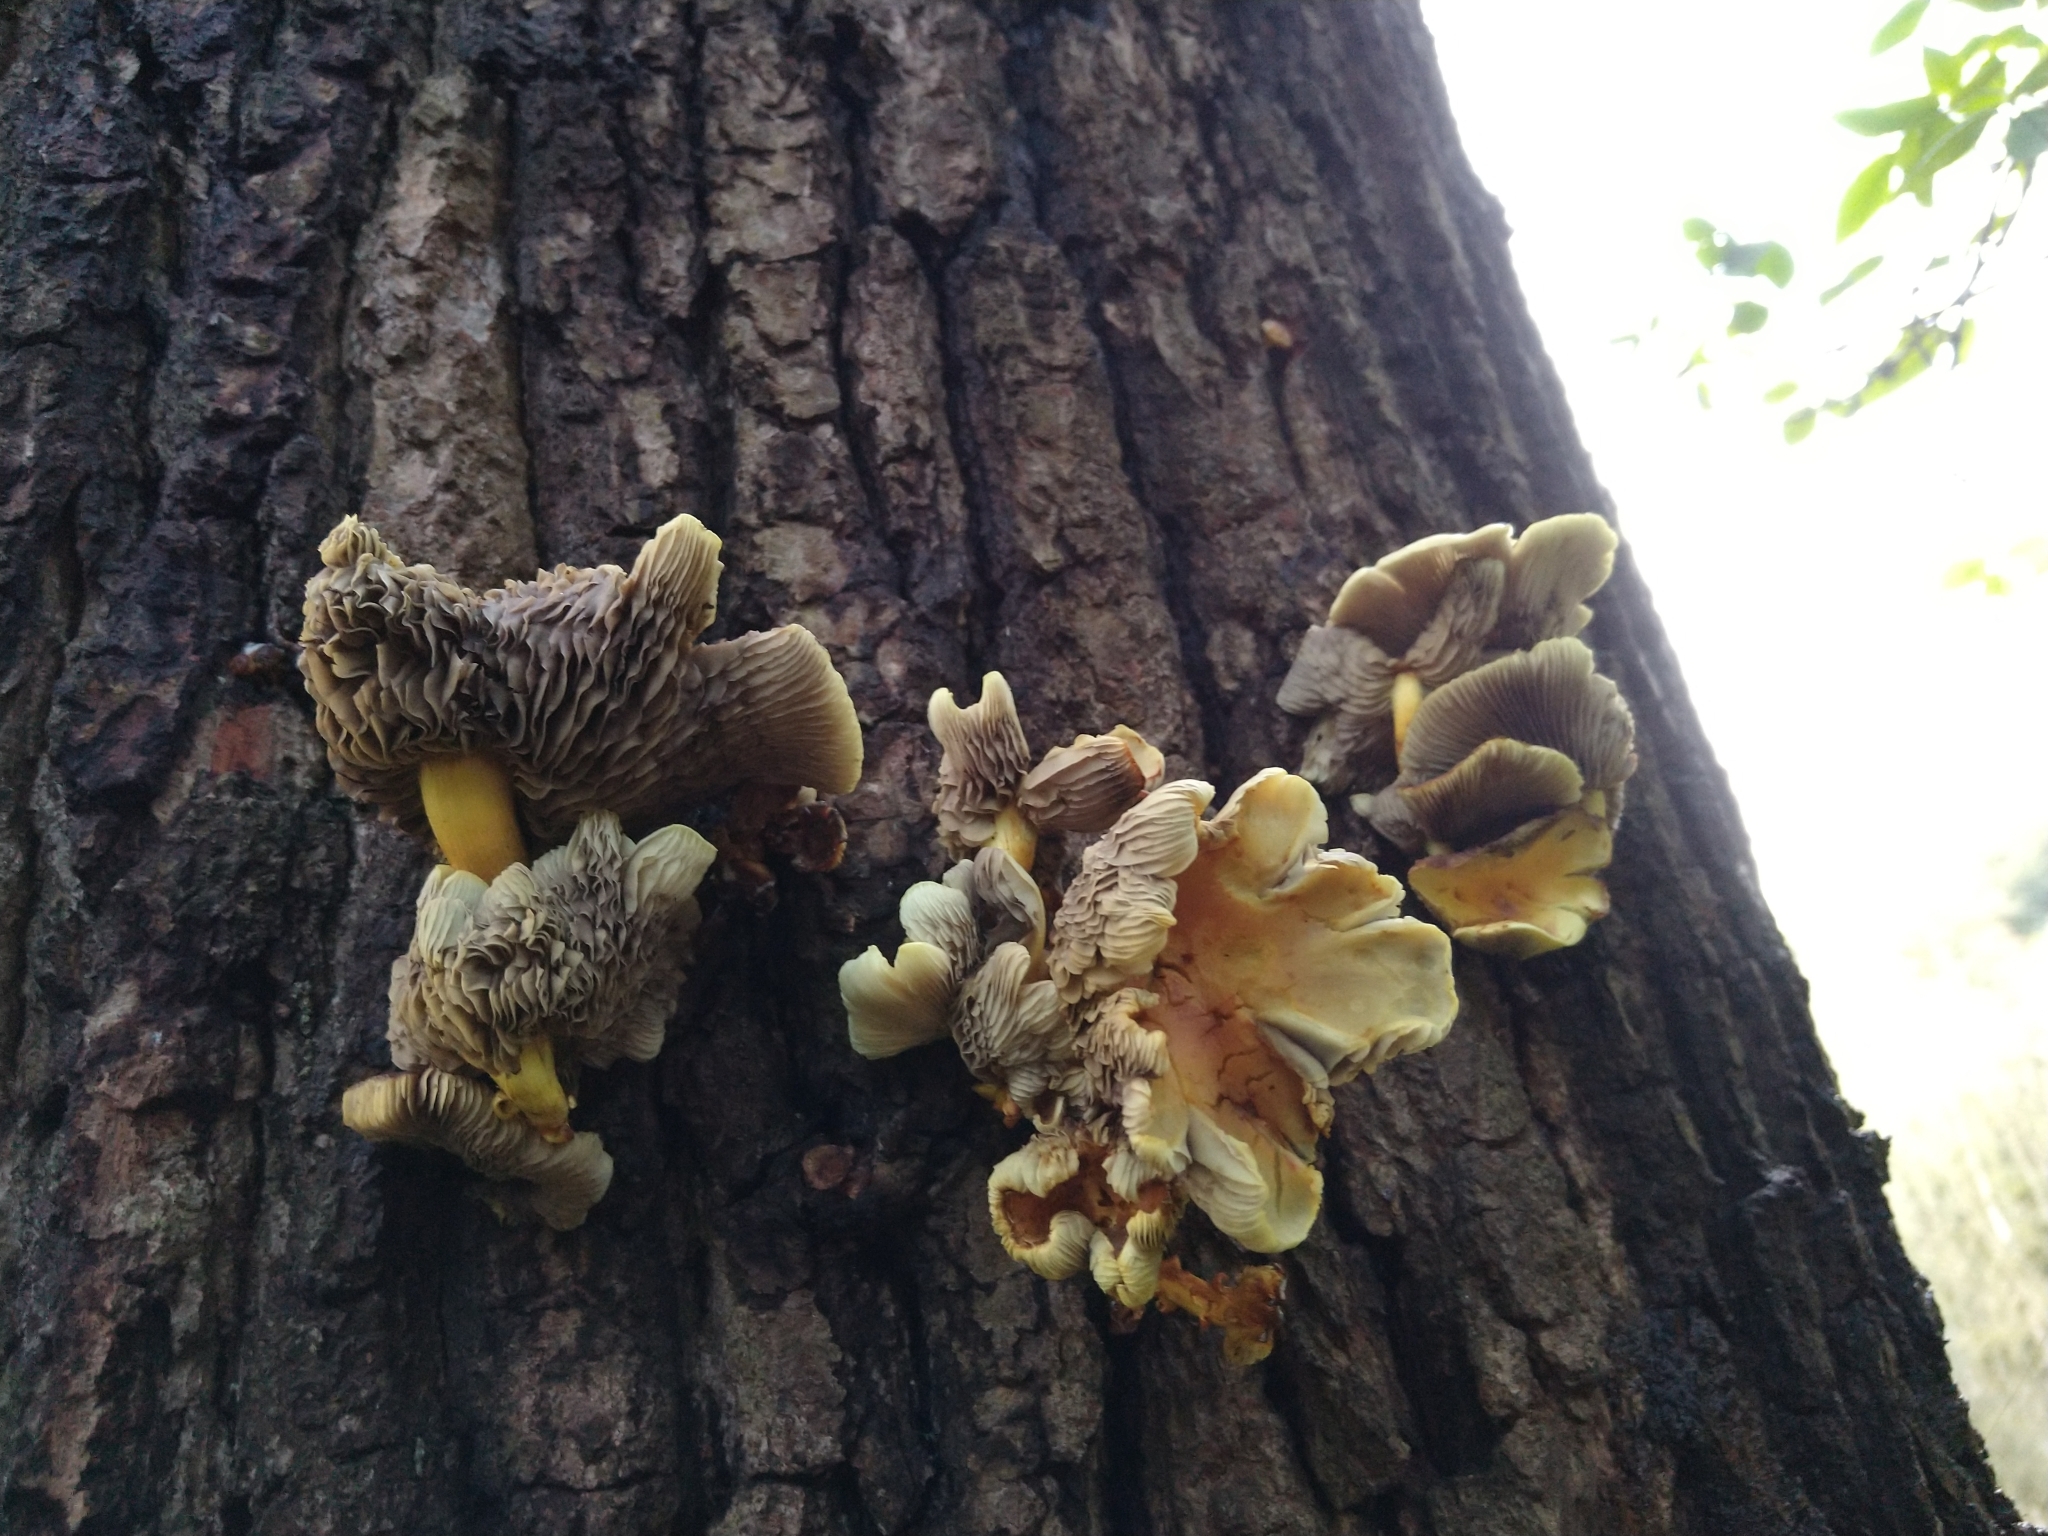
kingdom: Fungi
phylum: Basidiomycota
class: Agaricomycetes
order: Agaricales
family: Strophariaceae
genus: Hypholoma
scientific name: Hypholoma fasciculare
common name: Sulphur tuft
